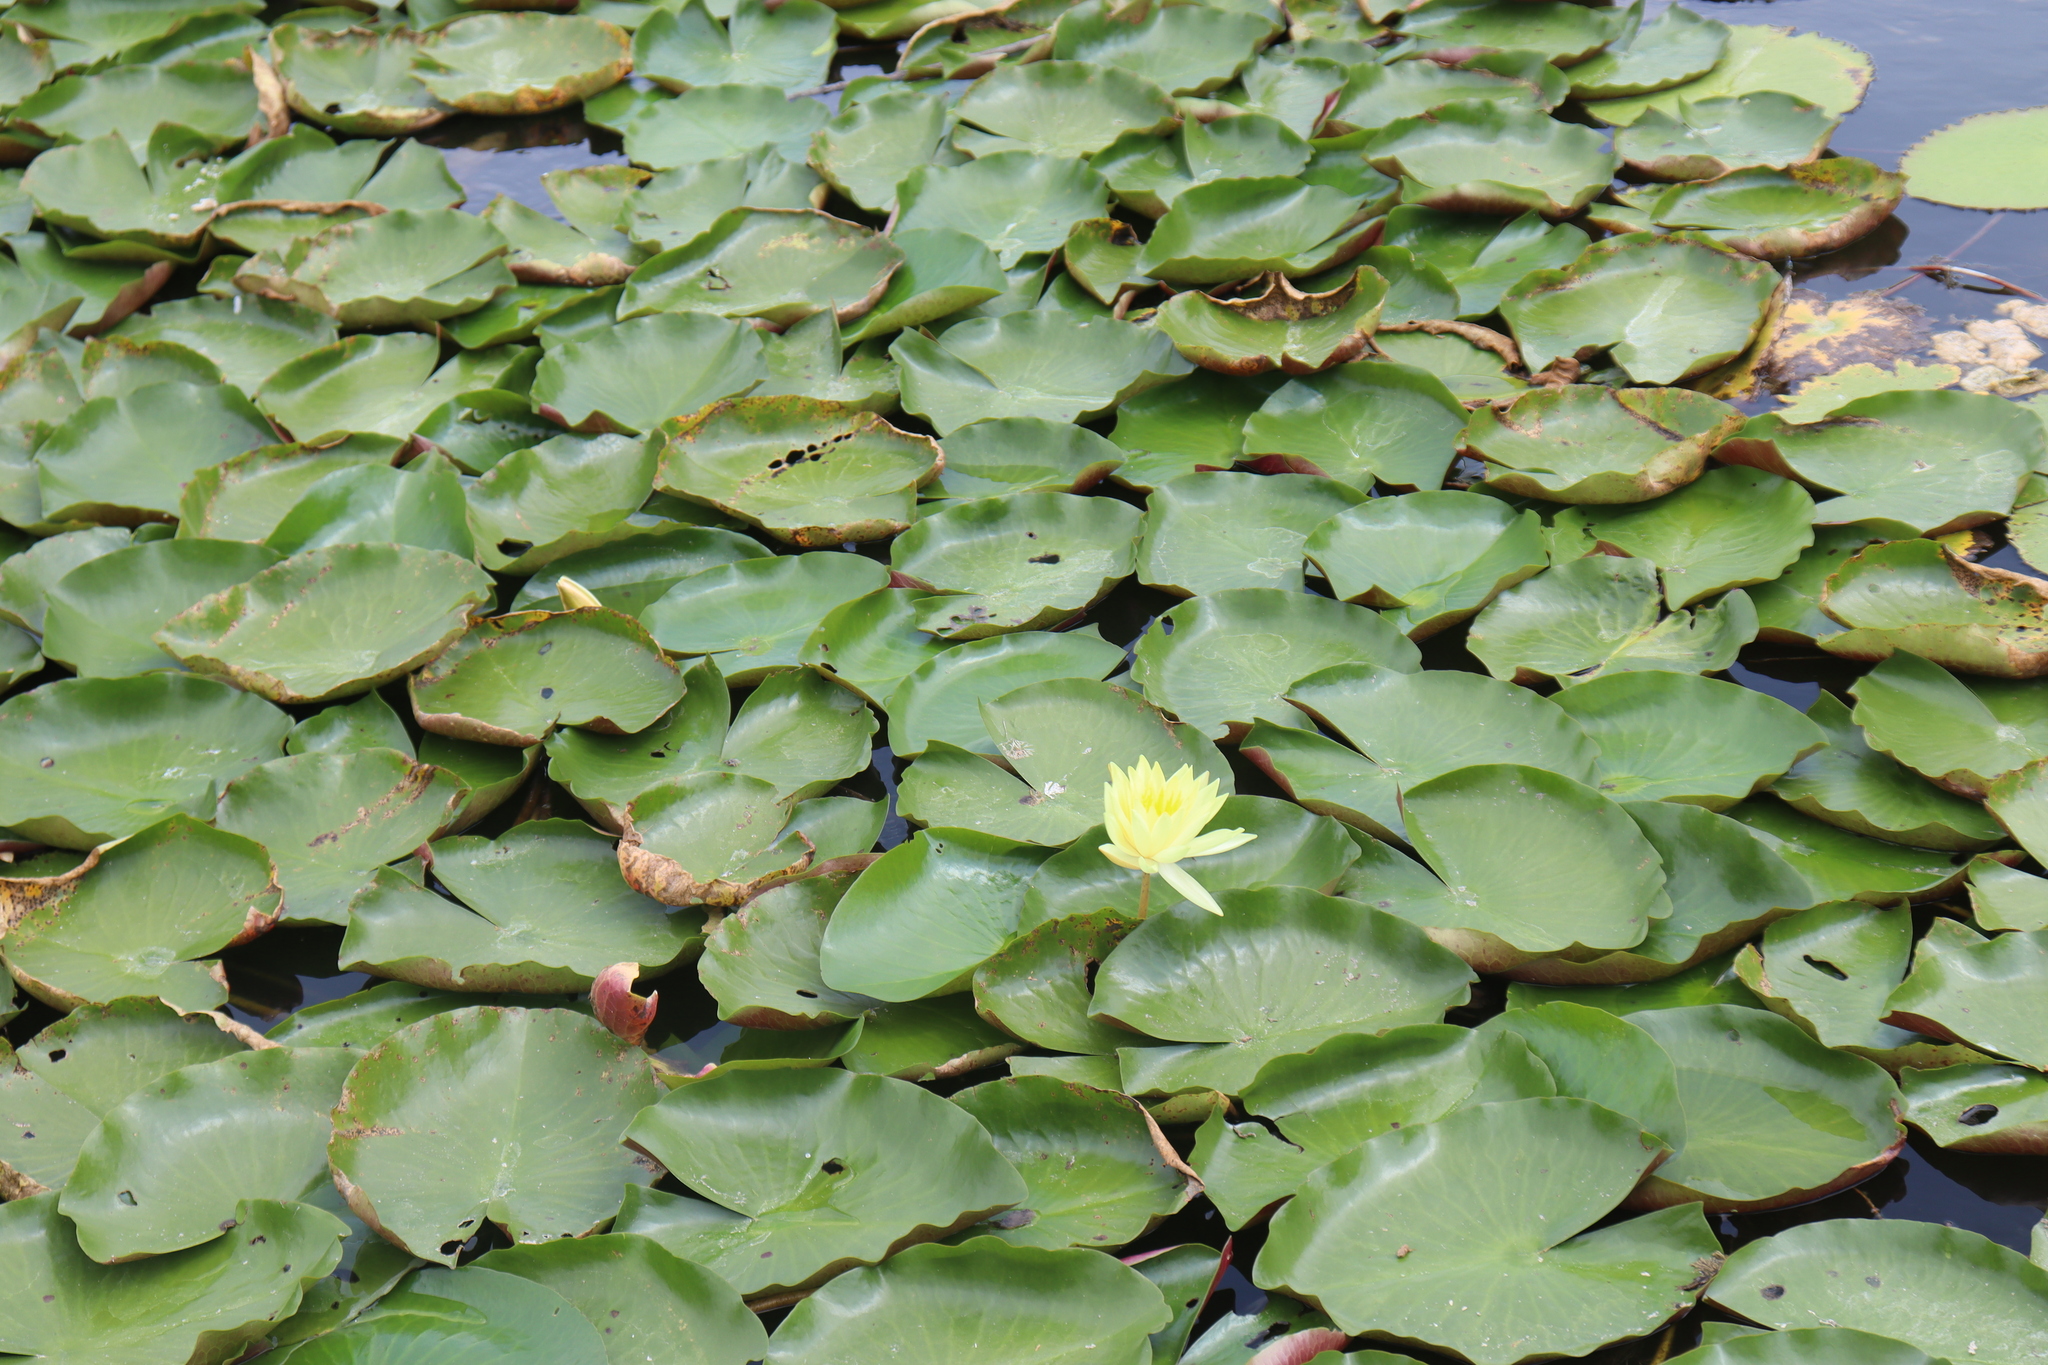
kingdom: Plantae
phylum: Tracheophyta
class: Magnoliopsida
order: Nymphaeales
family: Nymphaeaceae
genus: Nymphaea
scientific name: Nymphaea mexicana
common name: Banana water-lily
